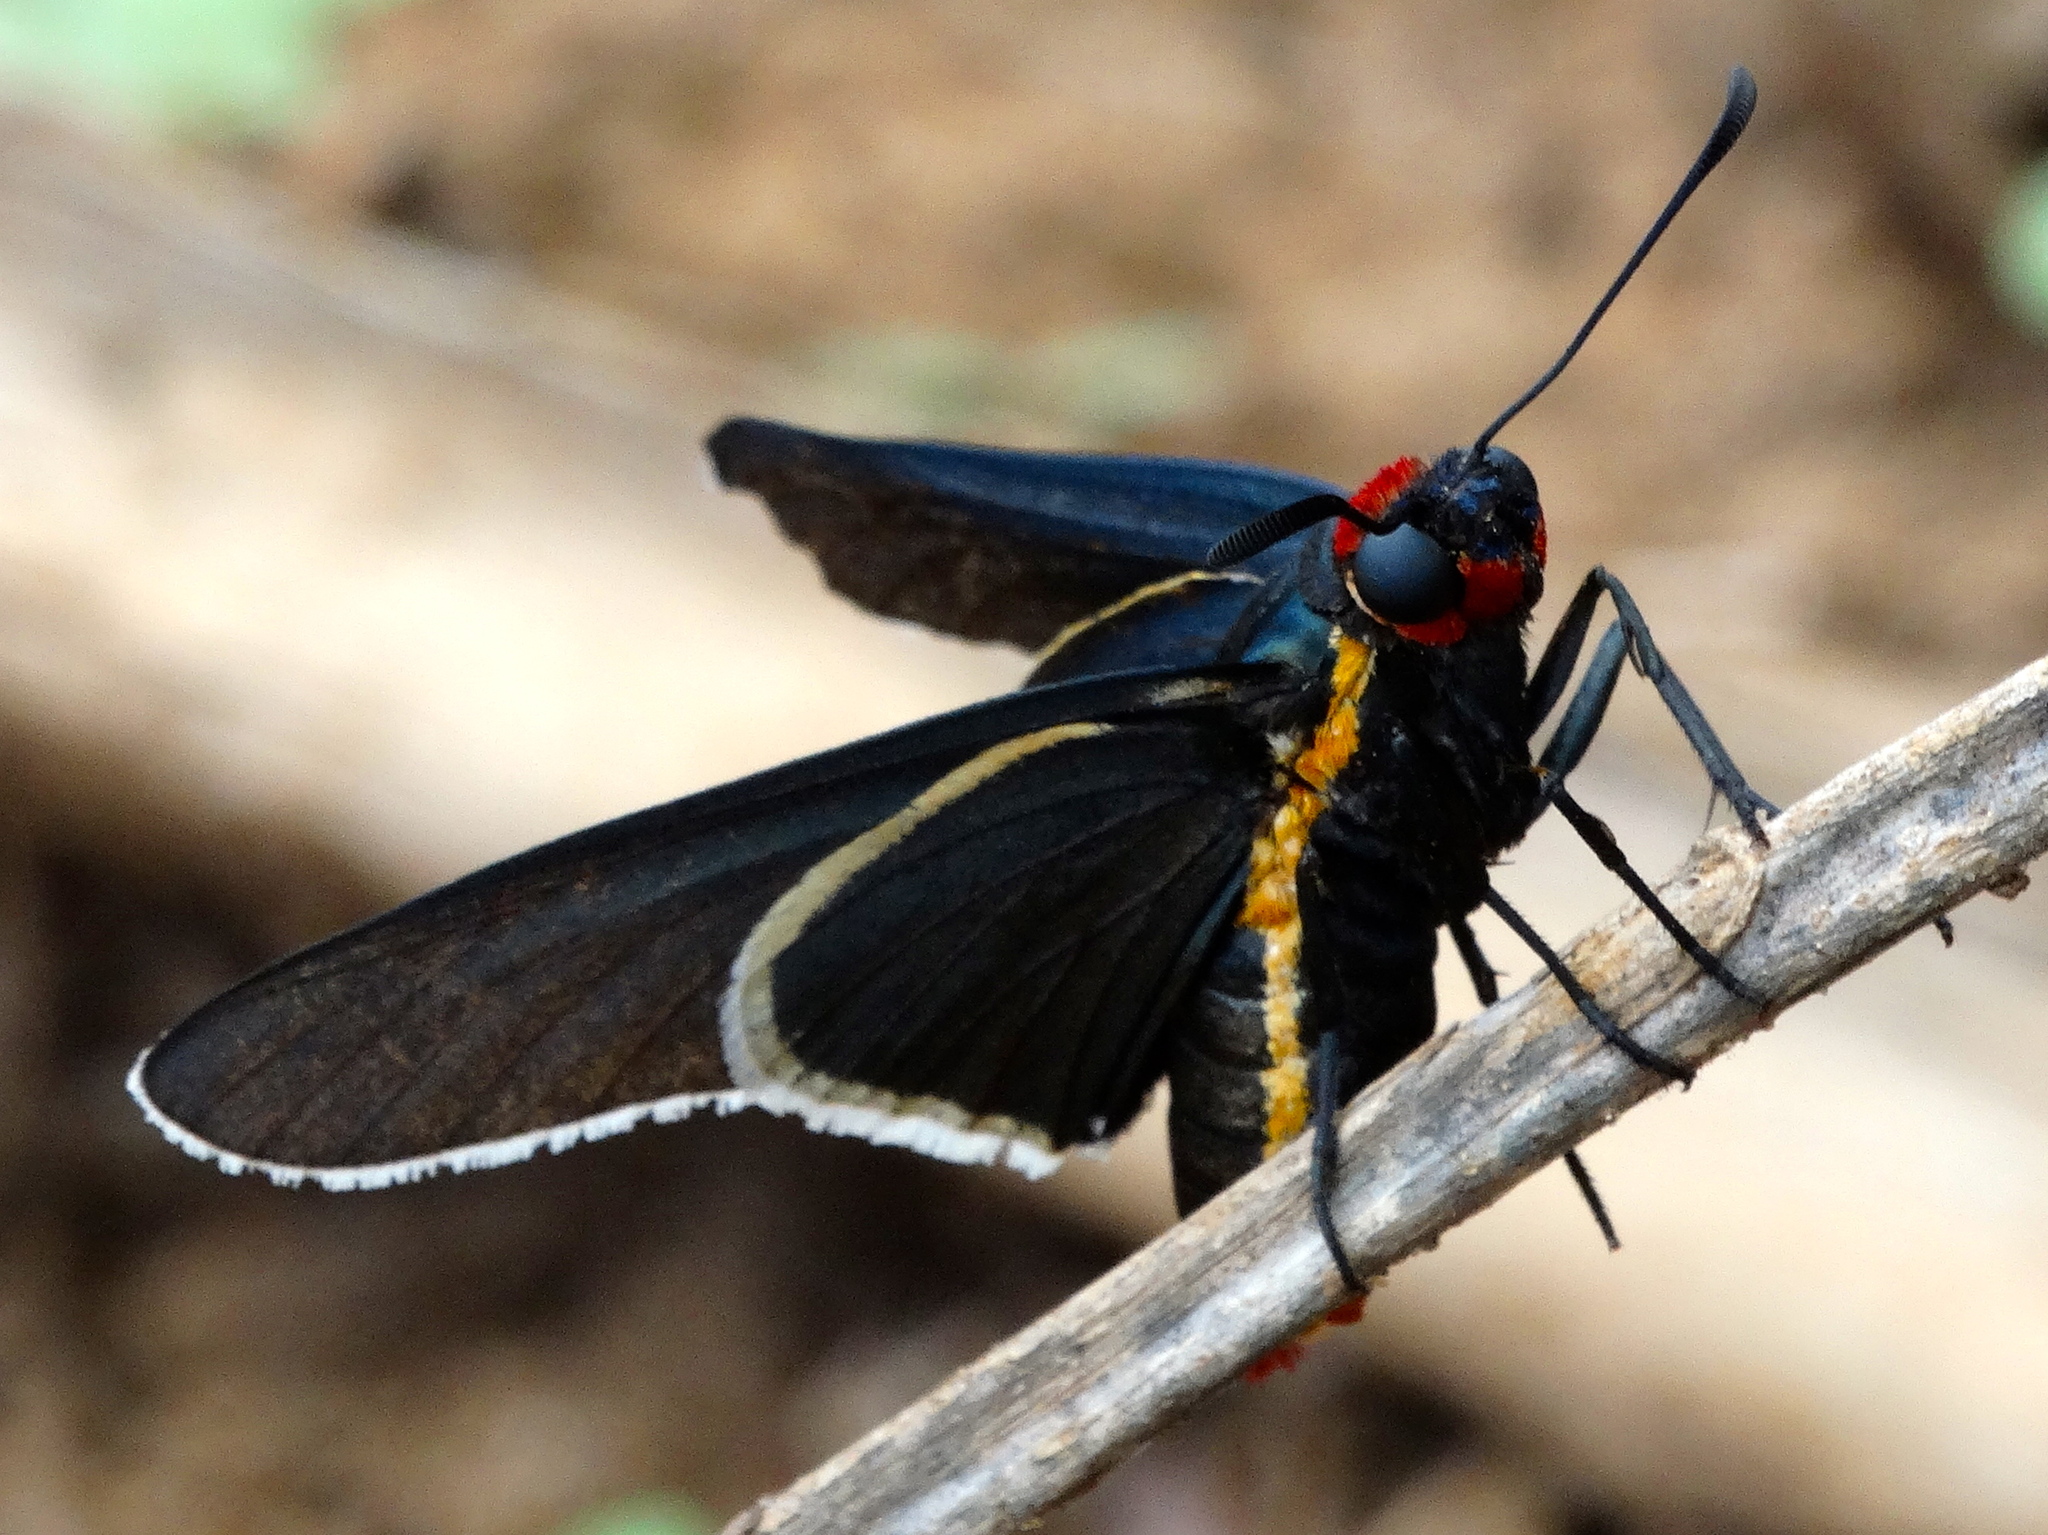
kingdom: Animalia
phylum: Arthropoda
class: Insecta
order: Lepidoptera
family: Hesperiidae
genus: Mysoria
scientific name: Mysoria affinis
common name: Red-collared firetip
